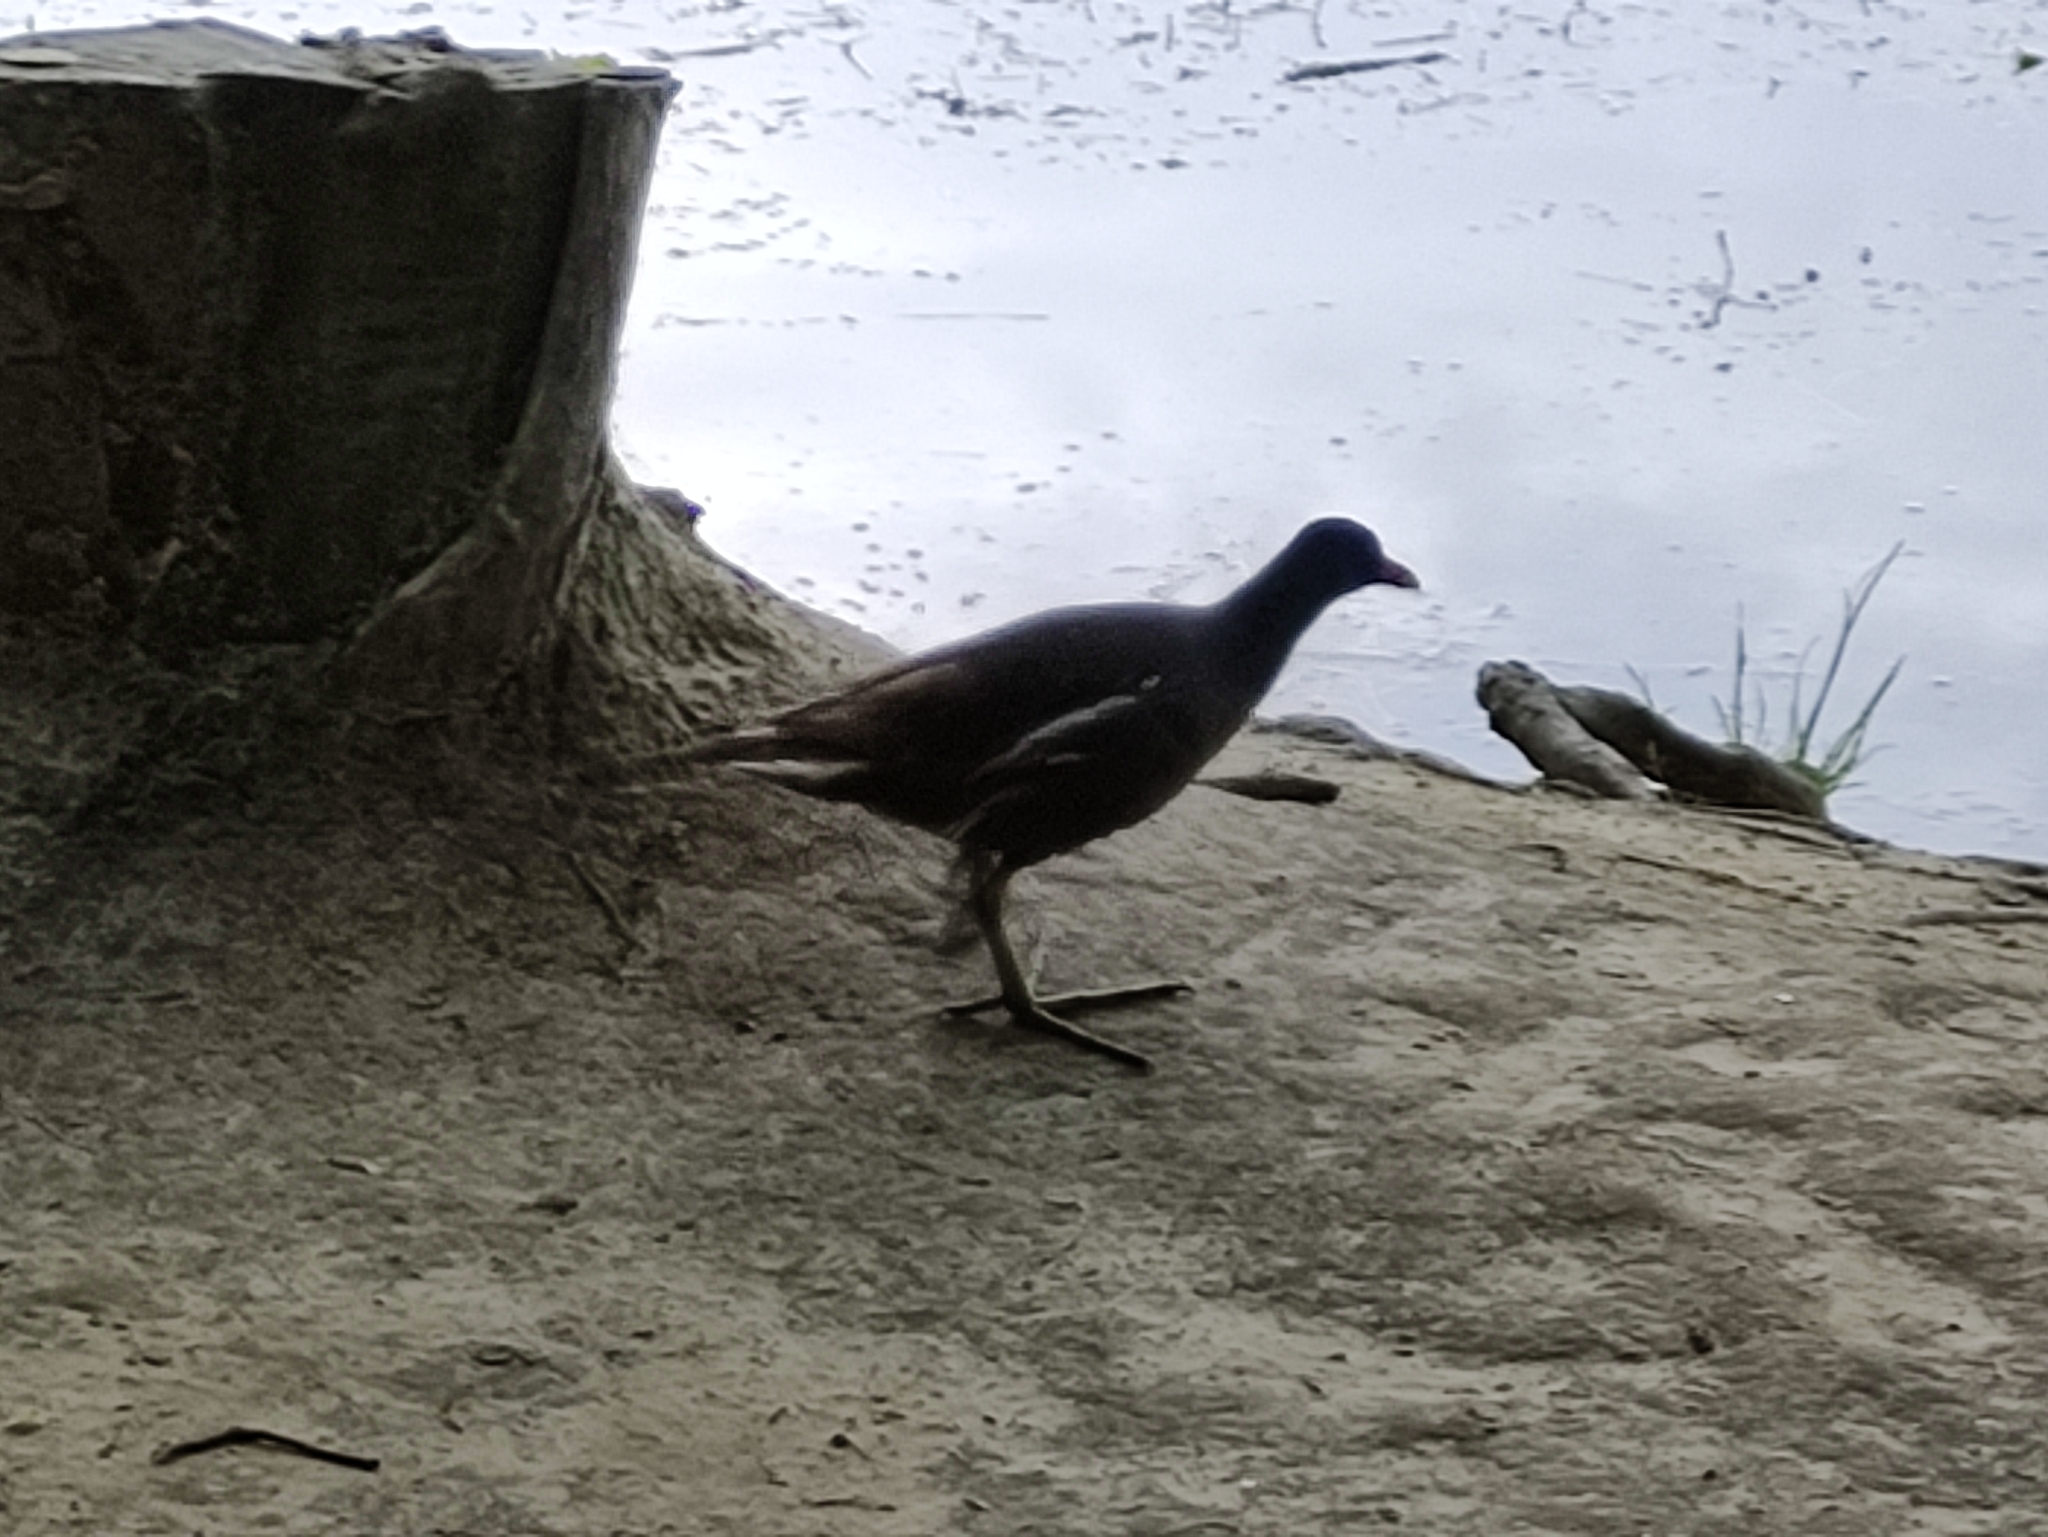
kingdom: Animalia
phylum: Chordata
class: Aves
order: Gruiformes
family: Rallidae
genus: Gallinula
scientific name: Gallinula chloropus
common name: Common moorhen
